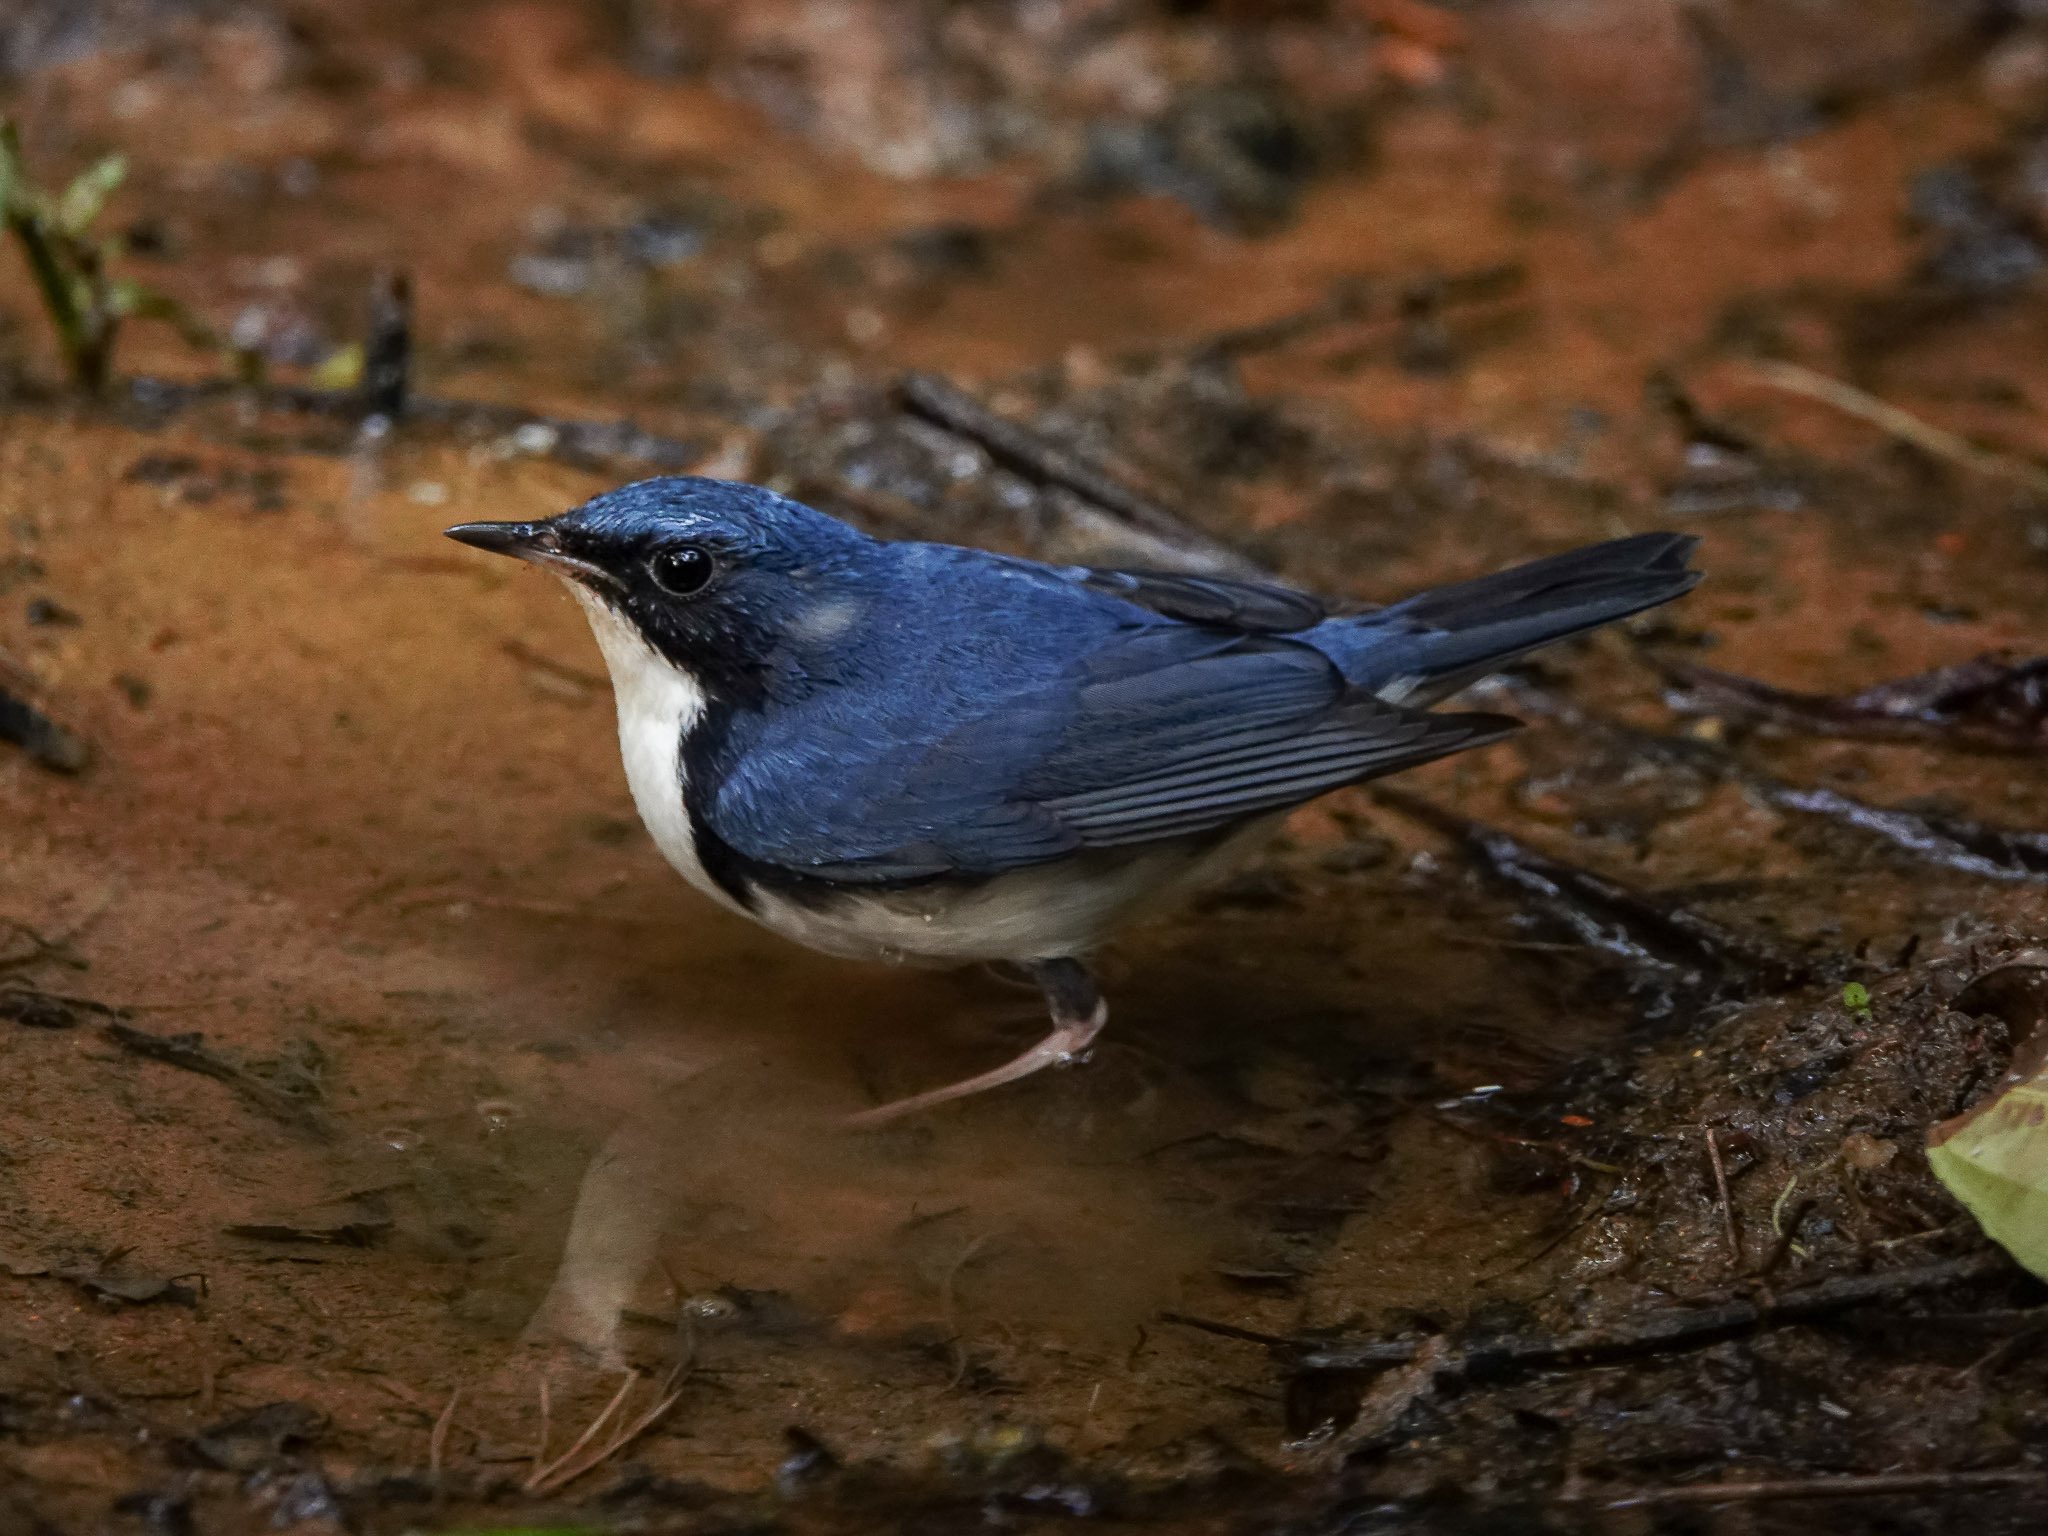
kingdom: Animalia
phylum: Chordata
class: Aves
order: Passeriformes
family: Muscicapidae
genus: Luscinia
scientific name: Luscinia cyane
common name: Siberian blue robin
